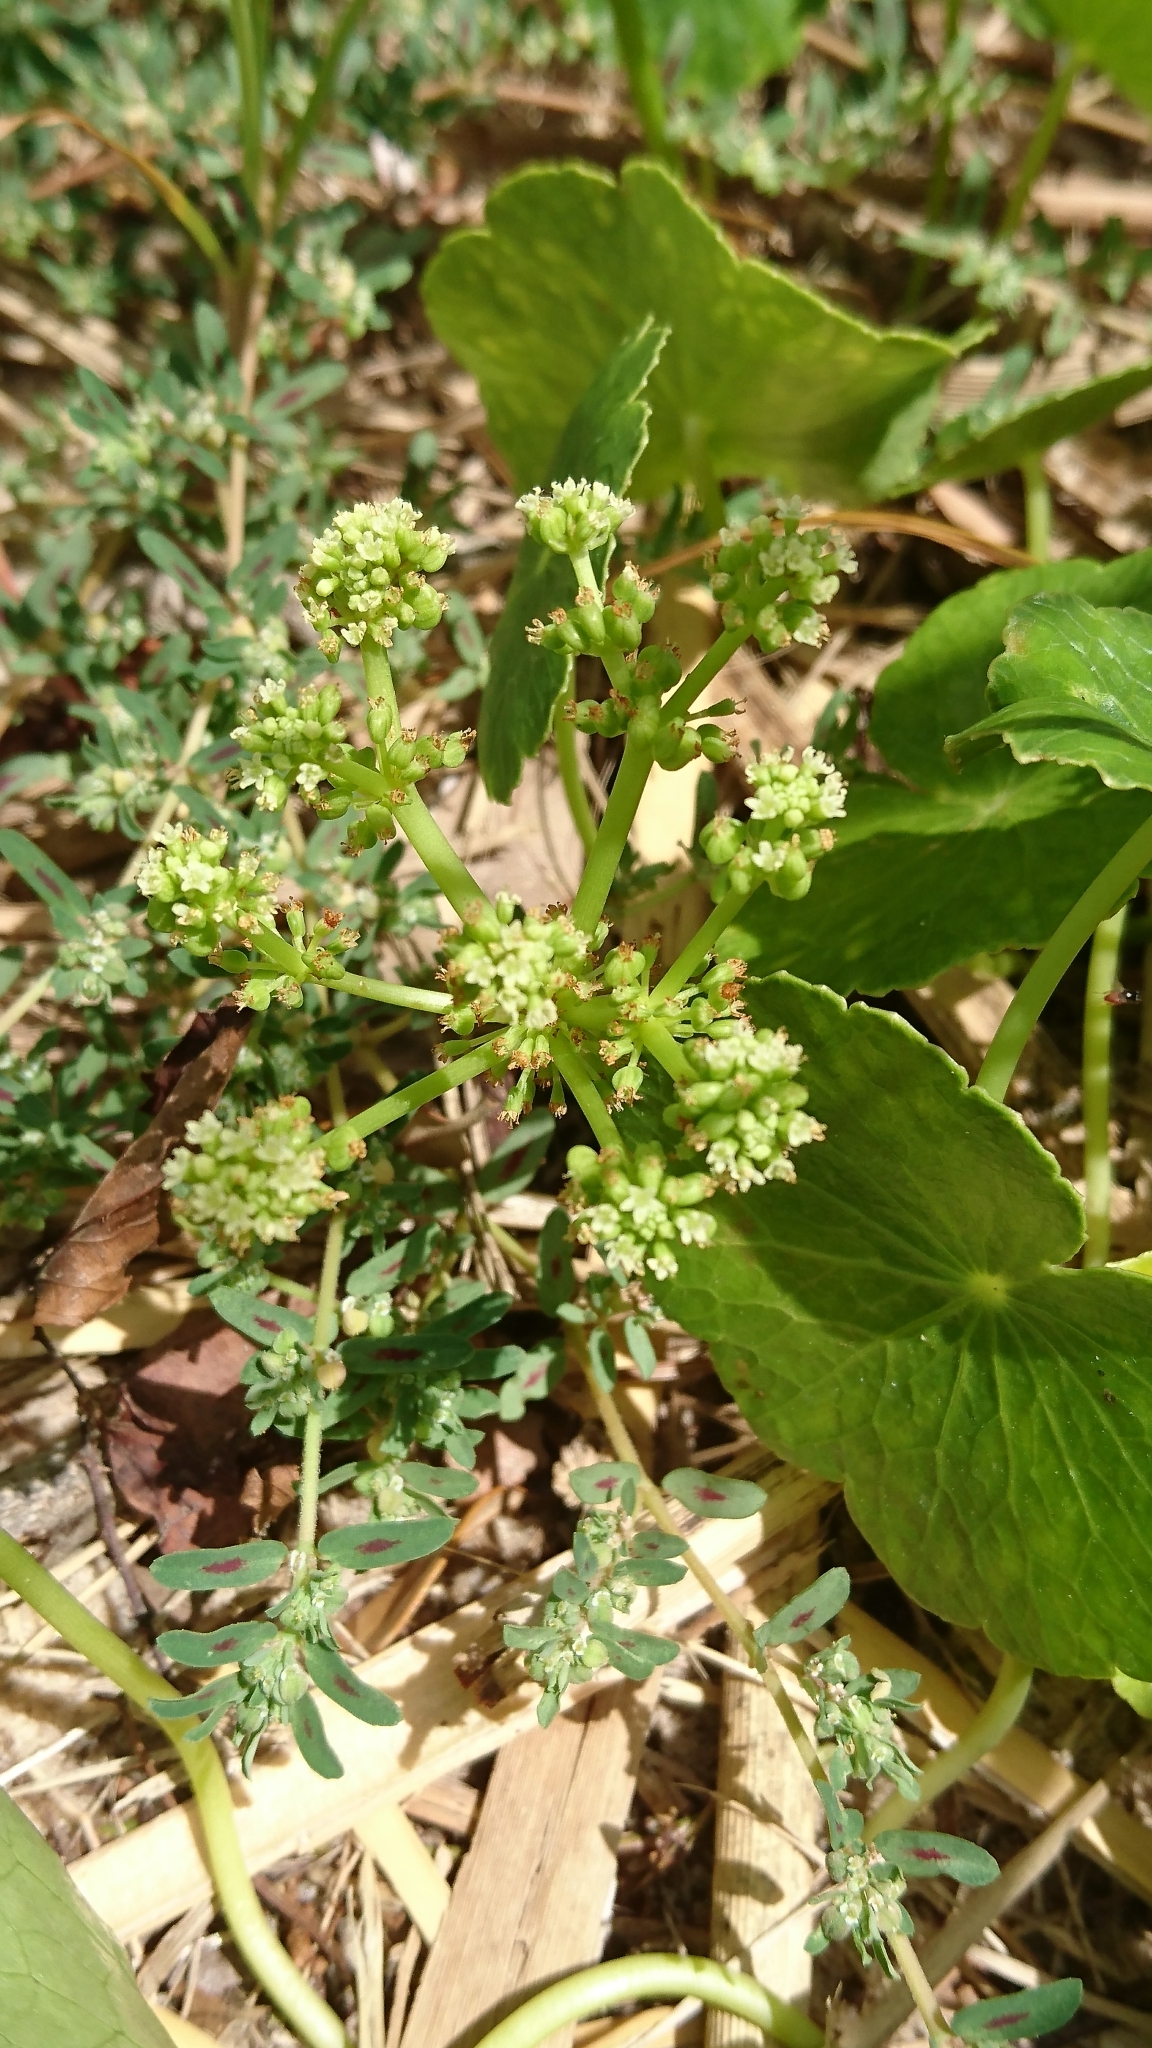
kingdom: Plantae
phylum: Tracheophyta
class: Magnoliopsida
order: Apiales
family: Araliaceae
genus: Hydrocotyle
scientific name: Hydrocotyle bonariensis
